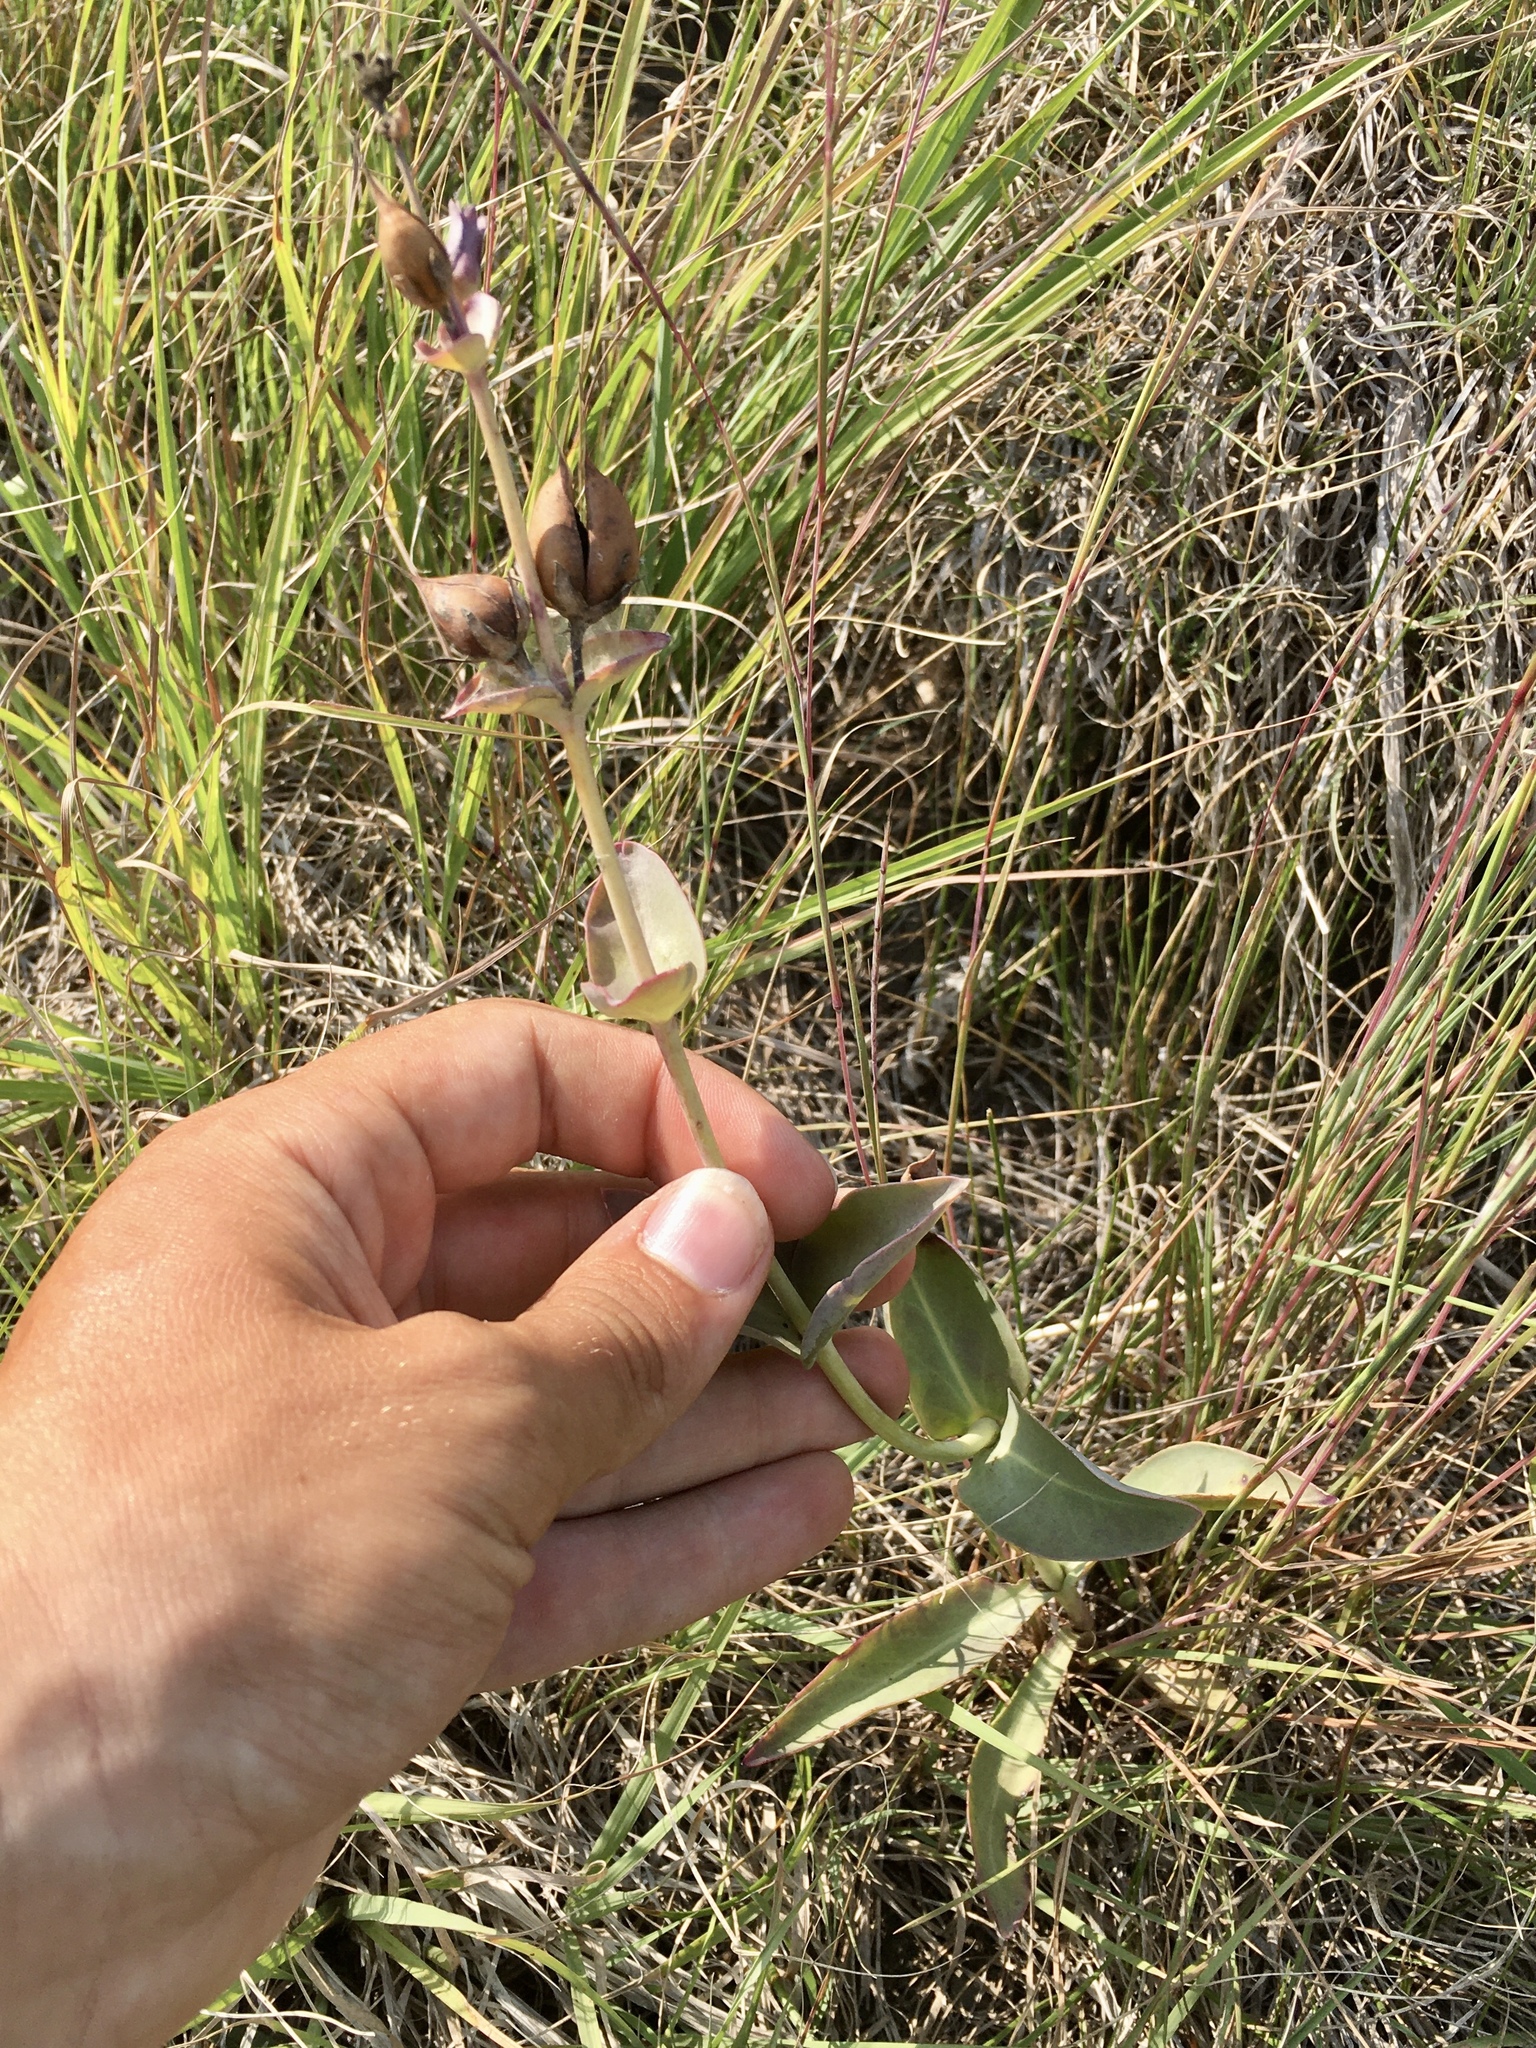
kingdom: Plantae
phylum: Tracheophyta
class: Magnoliopsida
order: Lamiales
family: Plantaginaceae
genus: Penstemon
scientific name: Penstemon
